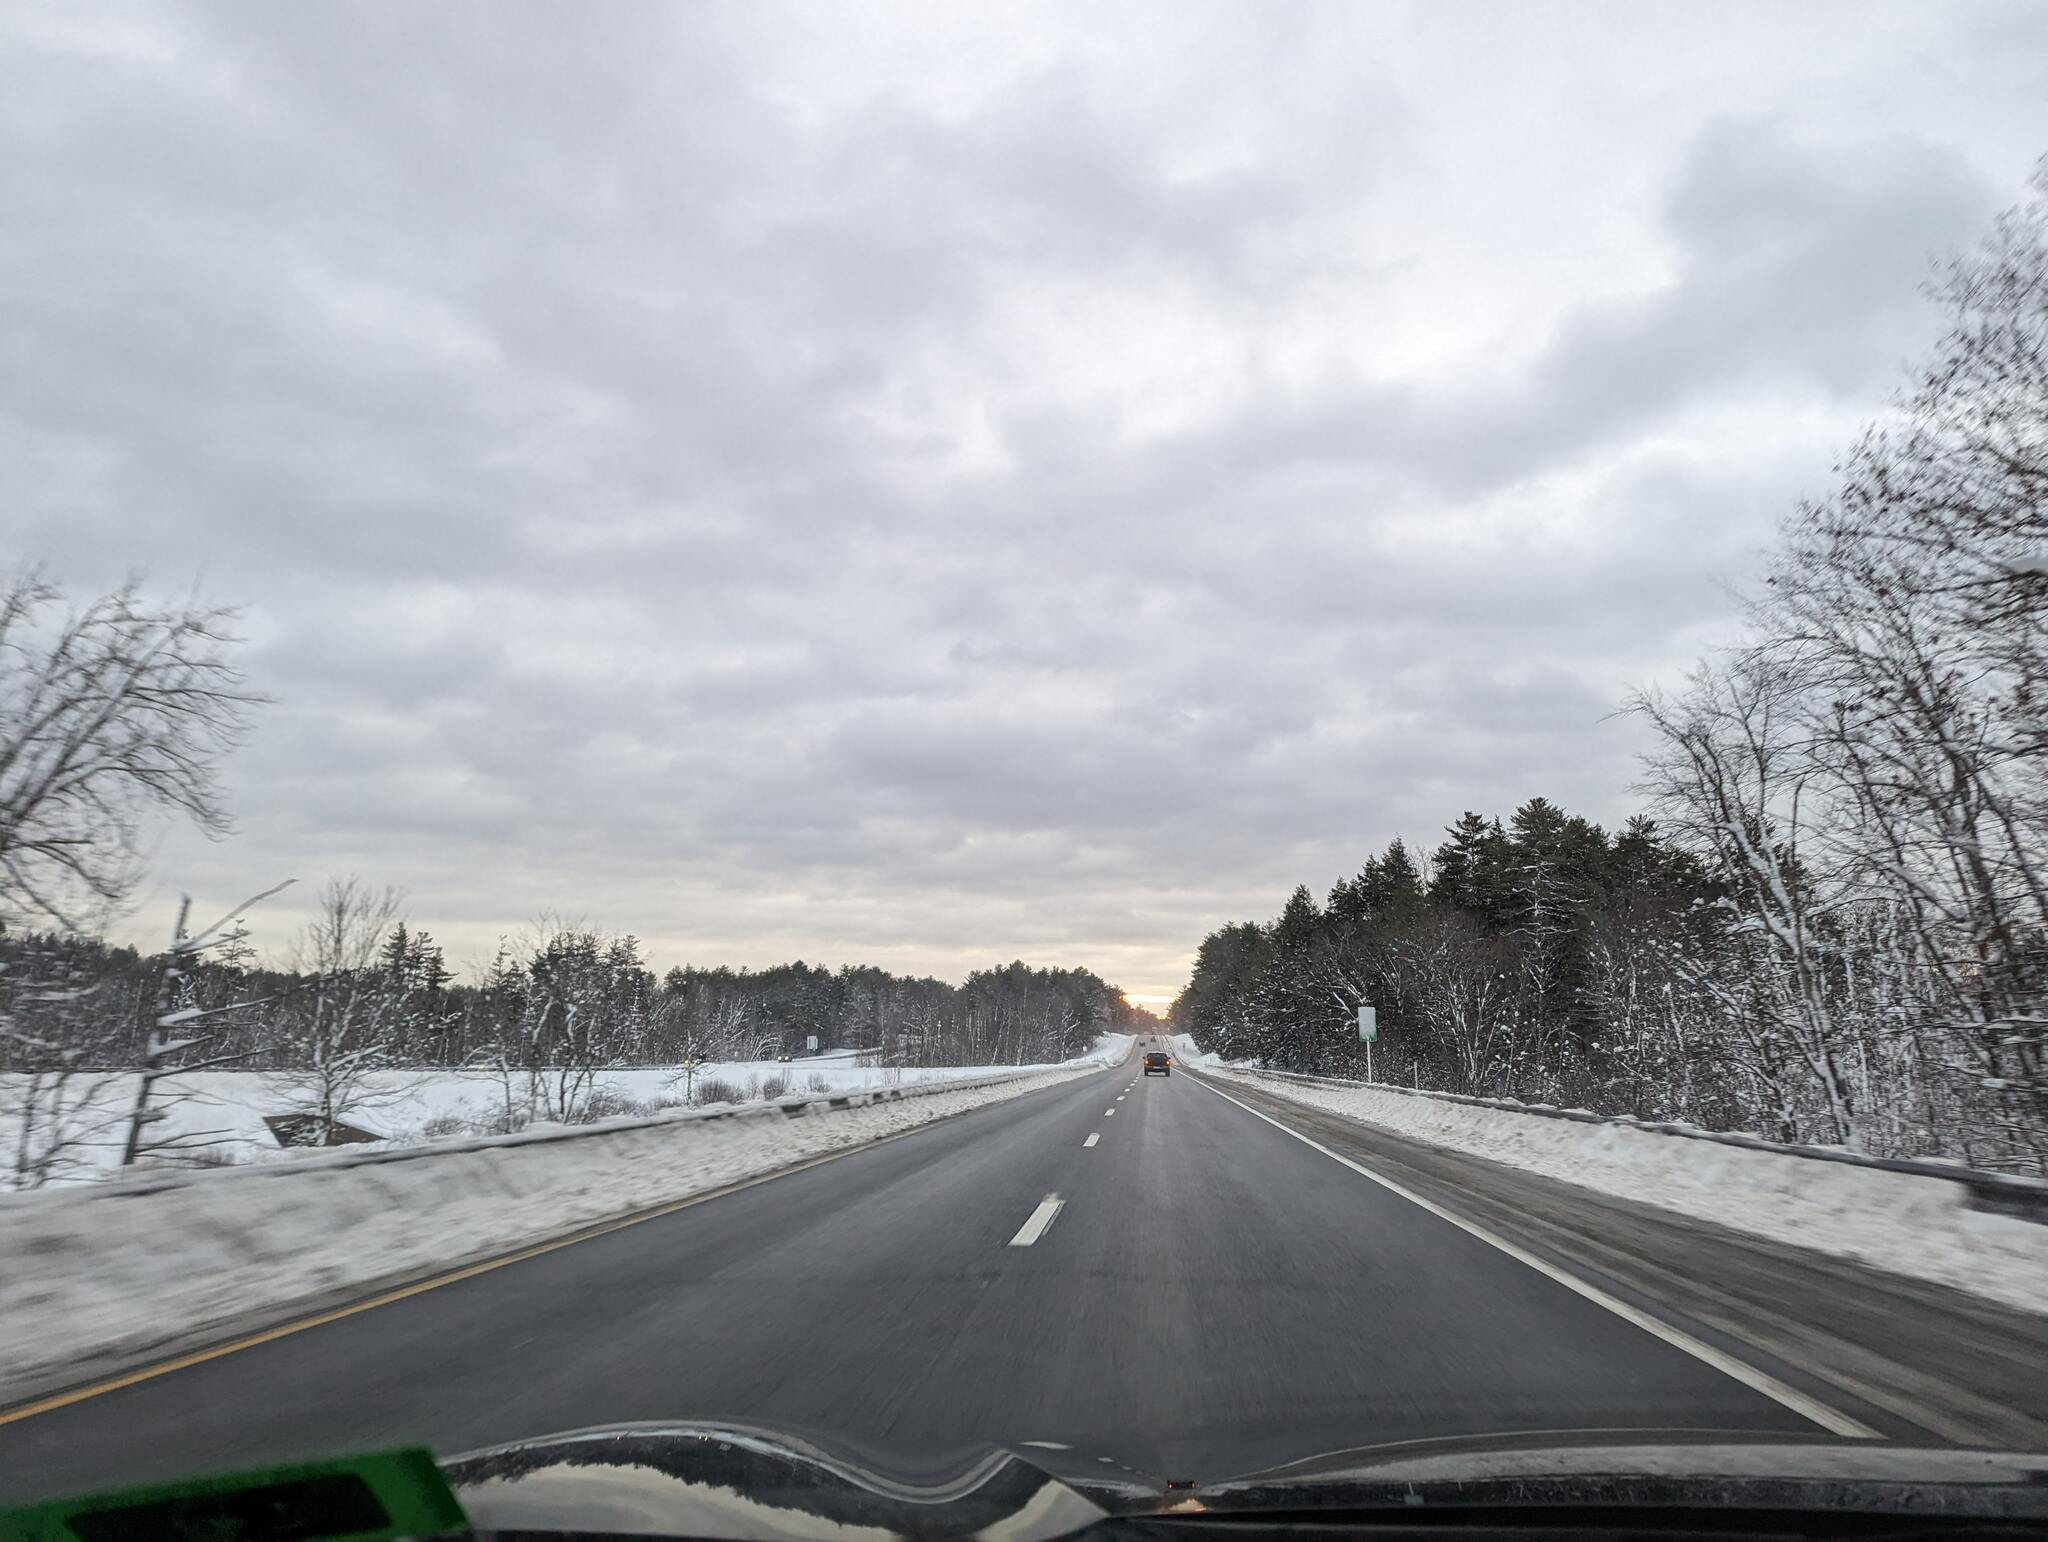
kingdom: Plantae
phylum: Tracheophyta
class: Pinopsida
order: Pinales
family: Pinaceae
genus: Pinus
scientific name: Pinus strobus
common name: Weymouth pine
